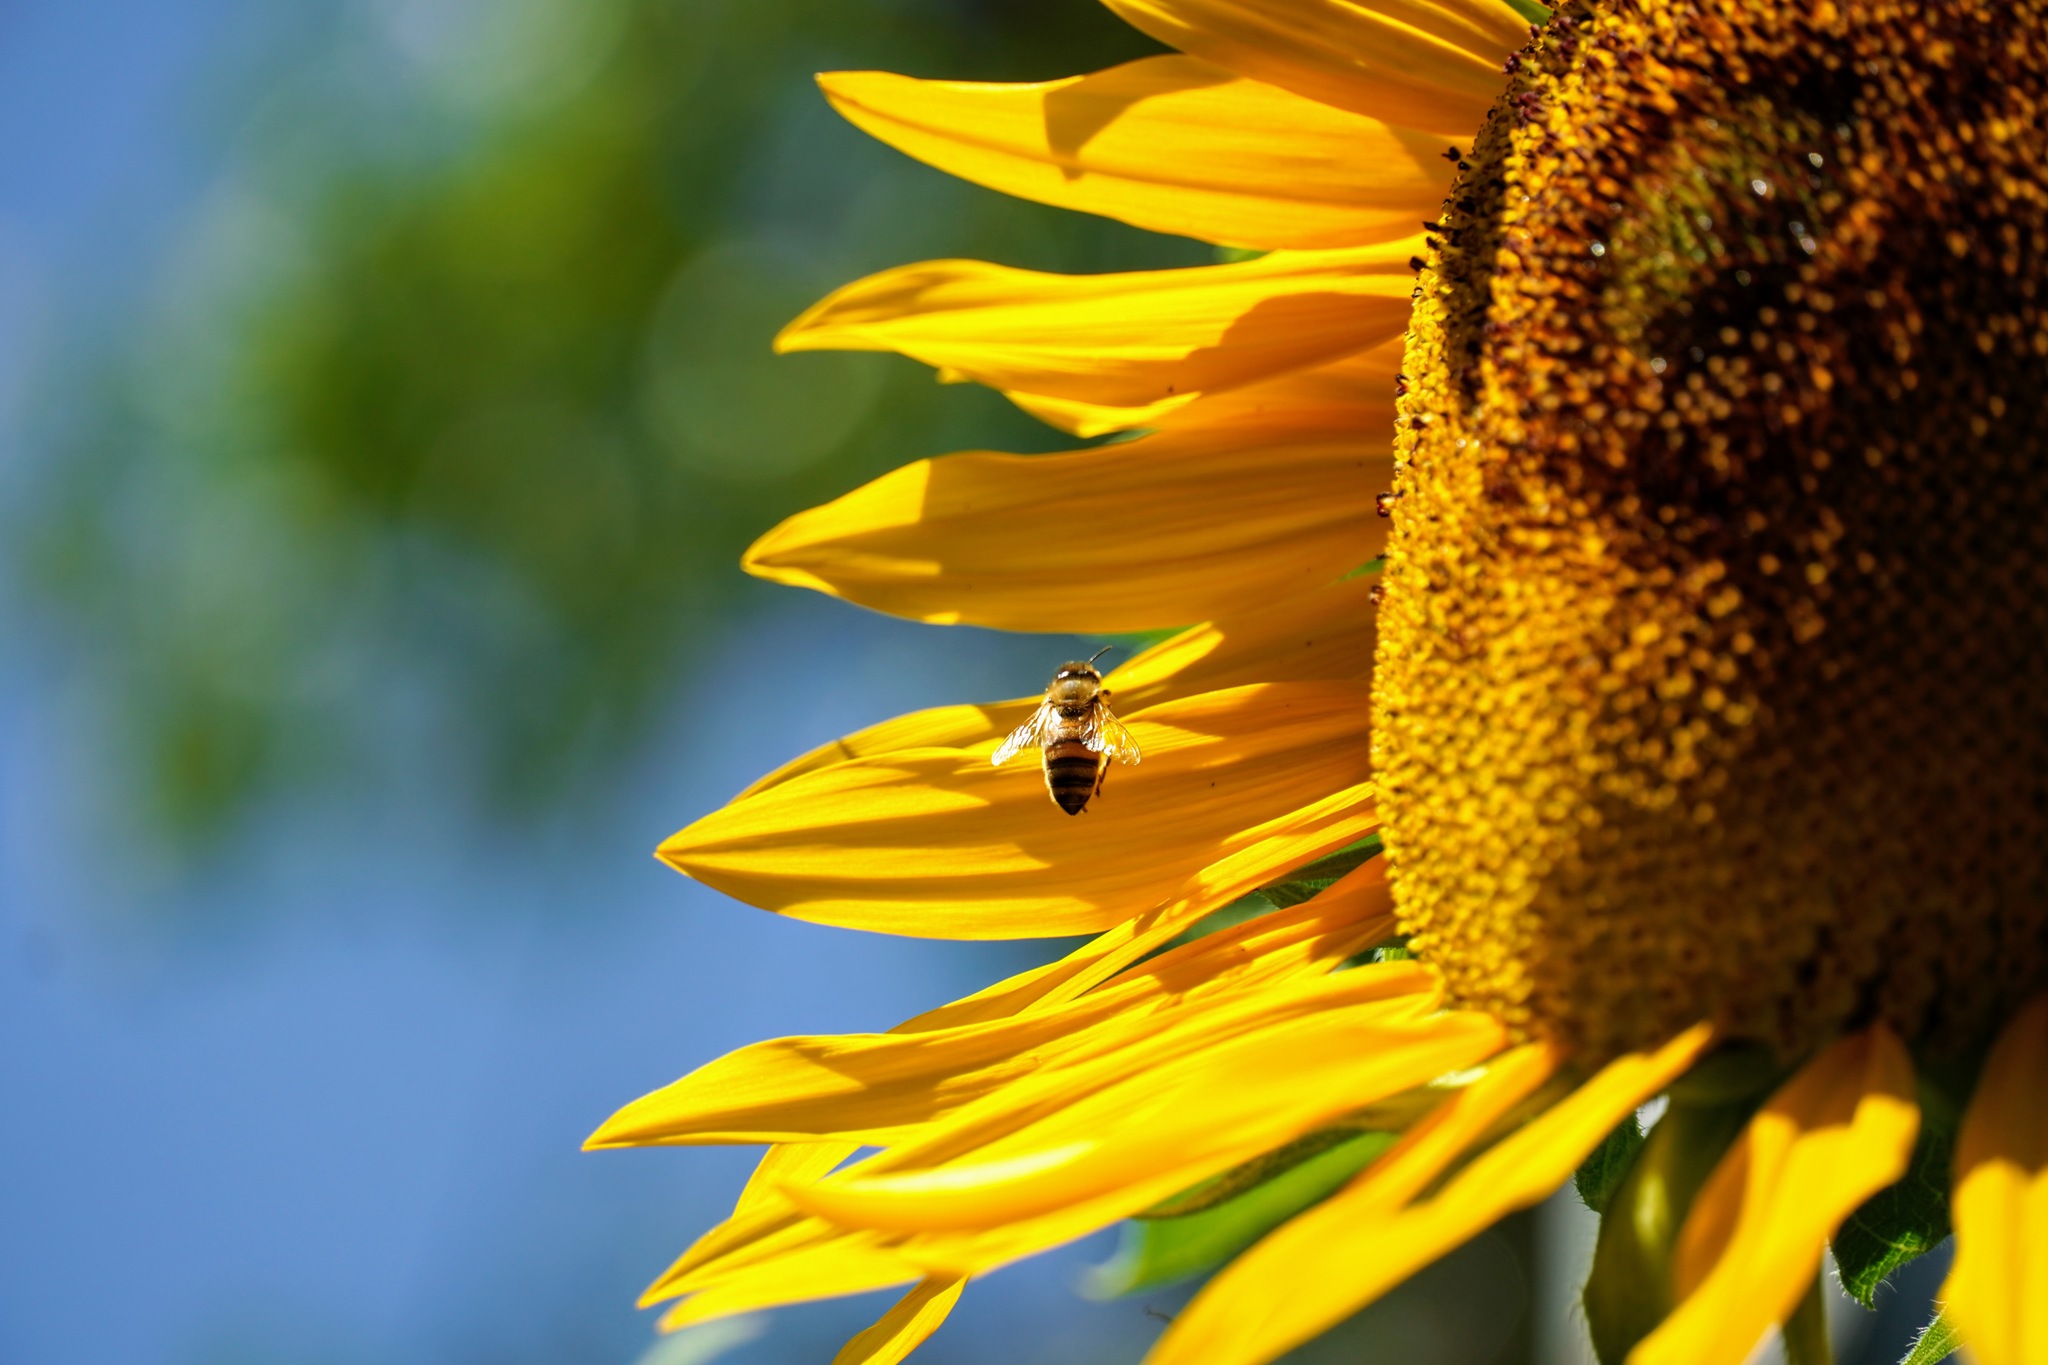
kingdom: Animalia
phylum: Arthropoda
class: Insecta
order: Hymenoptera
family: Apidae
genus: Apis
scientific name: Apis mellifera
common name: Honey bee
